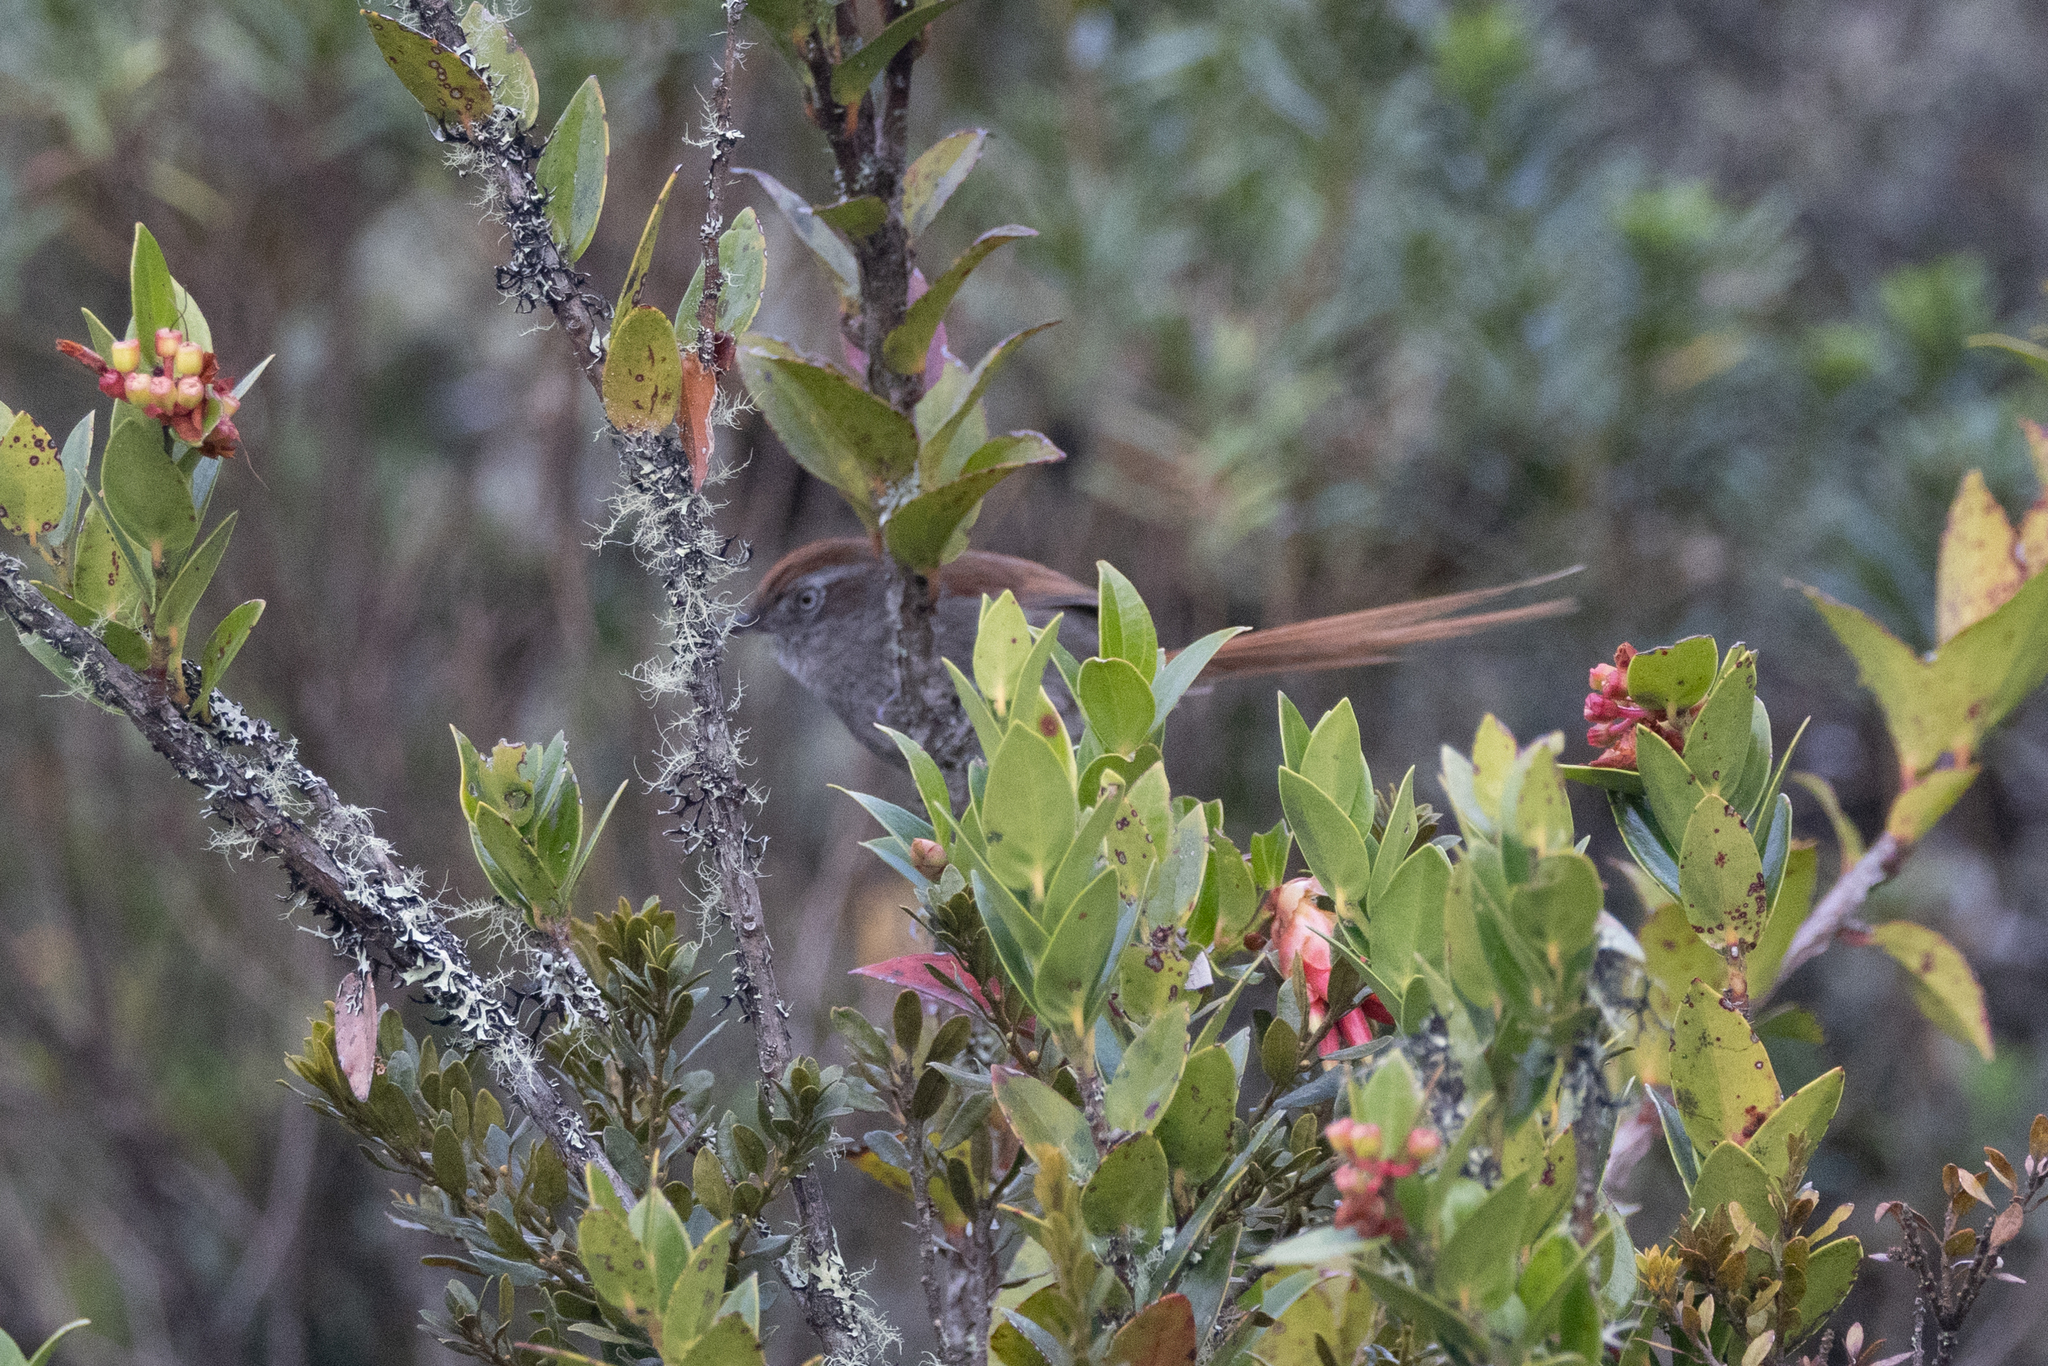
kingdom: Animalia
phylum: Chordata
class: Aves
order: Passeriformes
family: Furnariidae
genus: Schizoeaca
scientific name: Schizoeaca fuliginosa
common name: White-chinned thistletail
